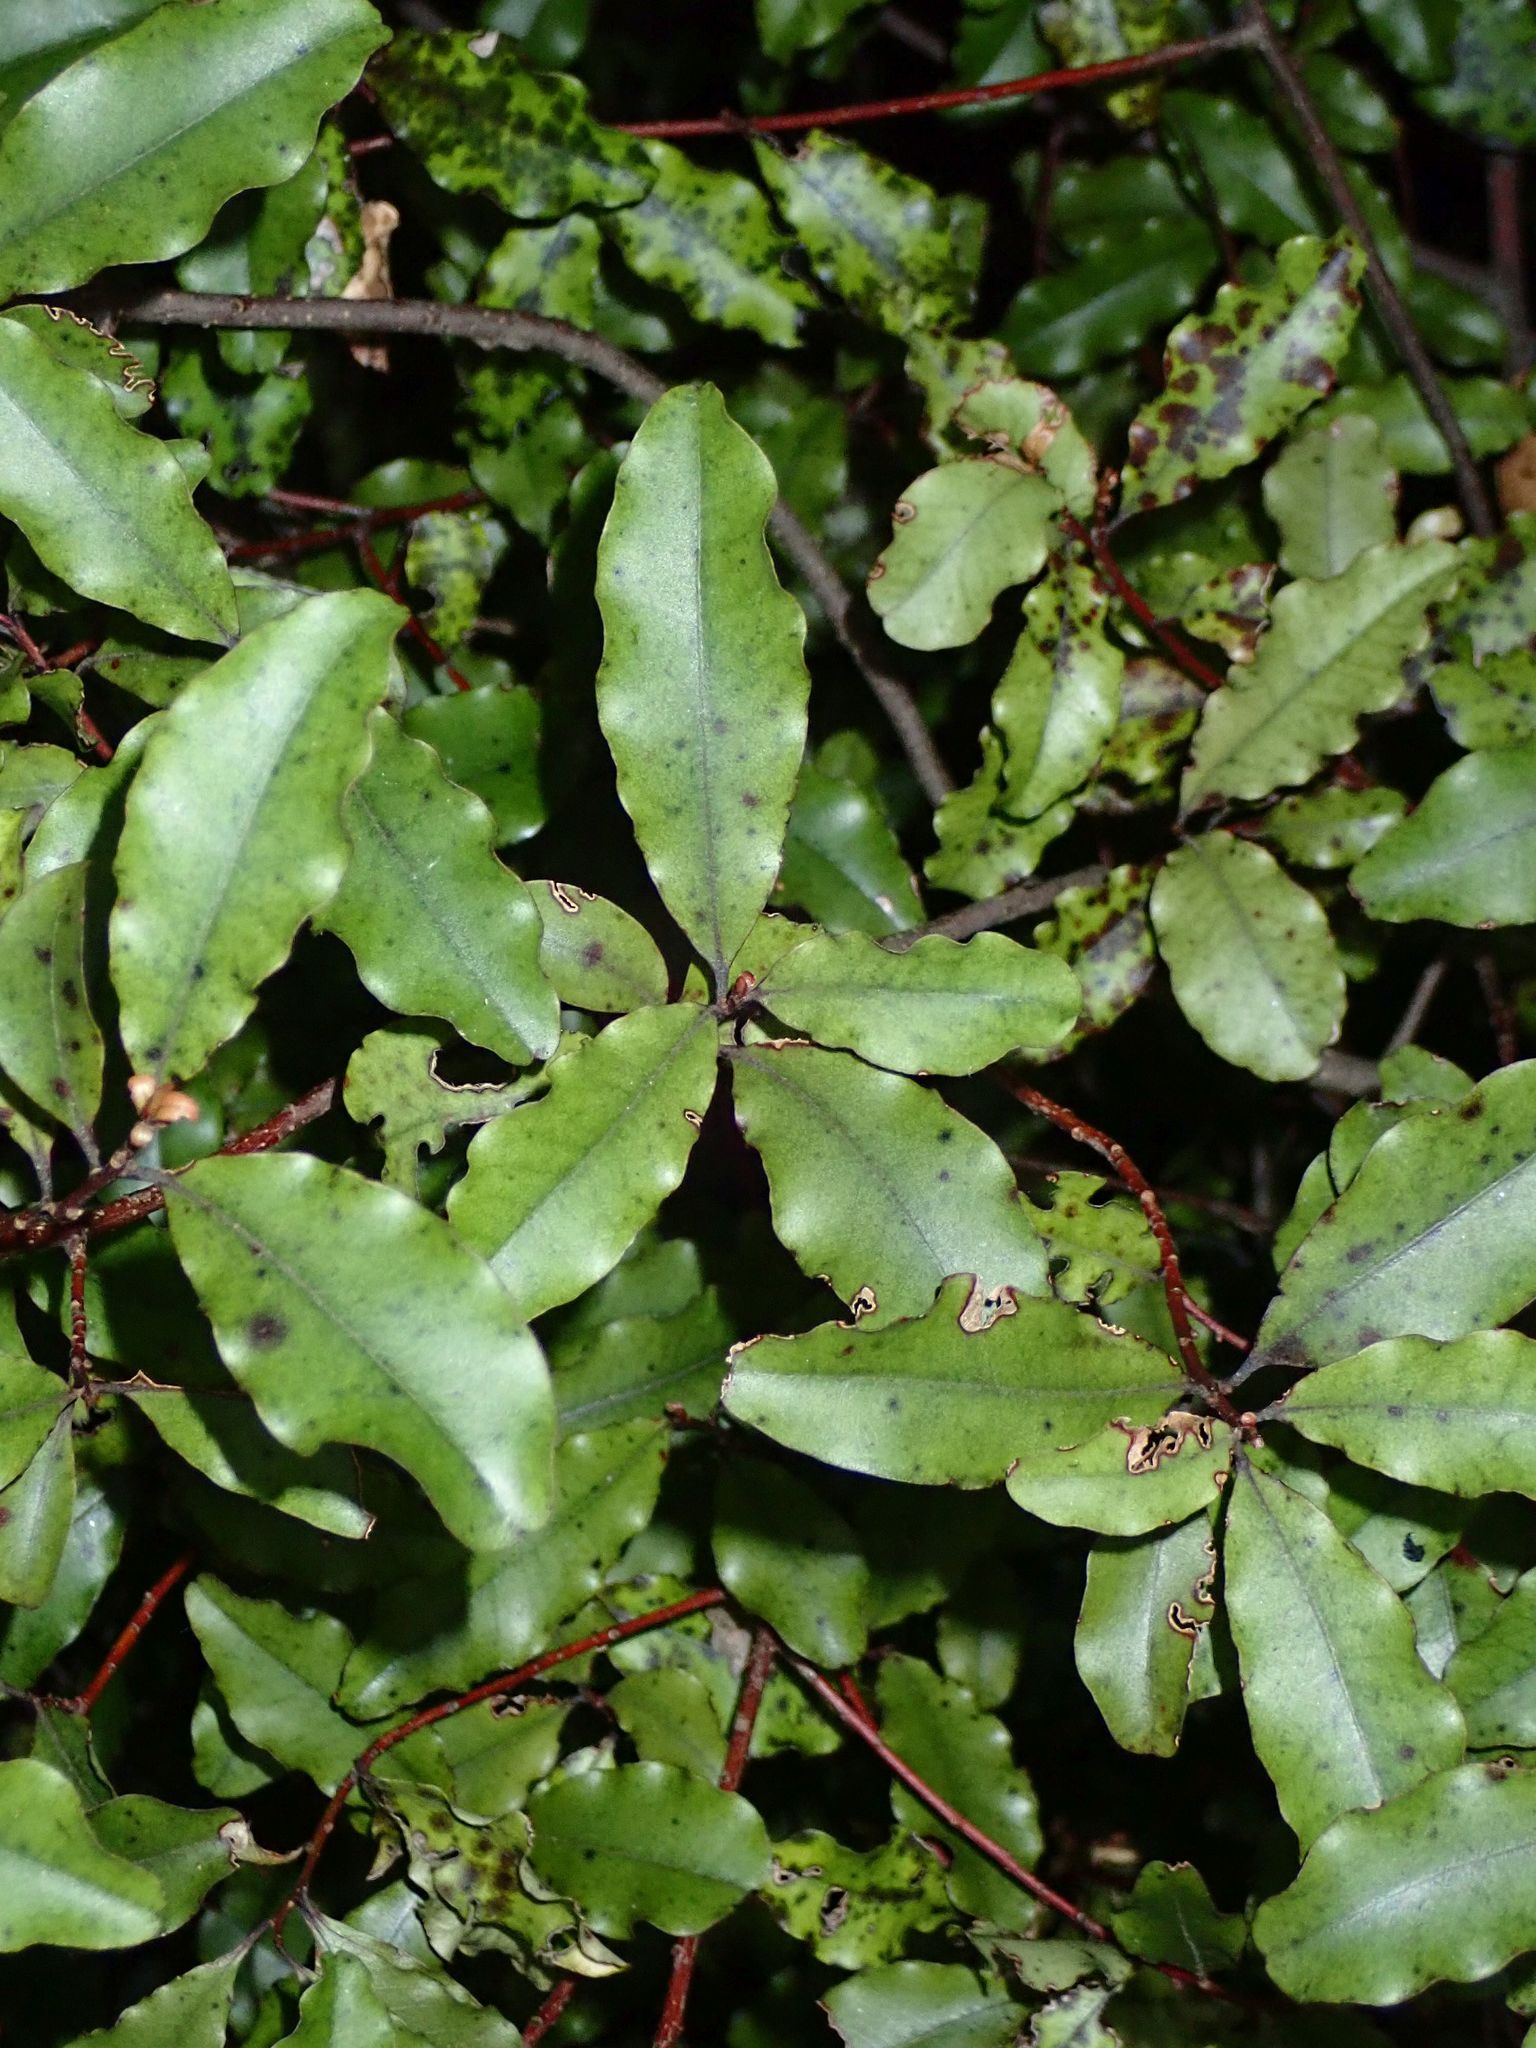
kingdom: Plantae
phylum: Tracheophyta
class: Magnoliopsida
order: Ericales
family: Primulaceae
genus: Myrsine
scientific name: Myrsine australis
